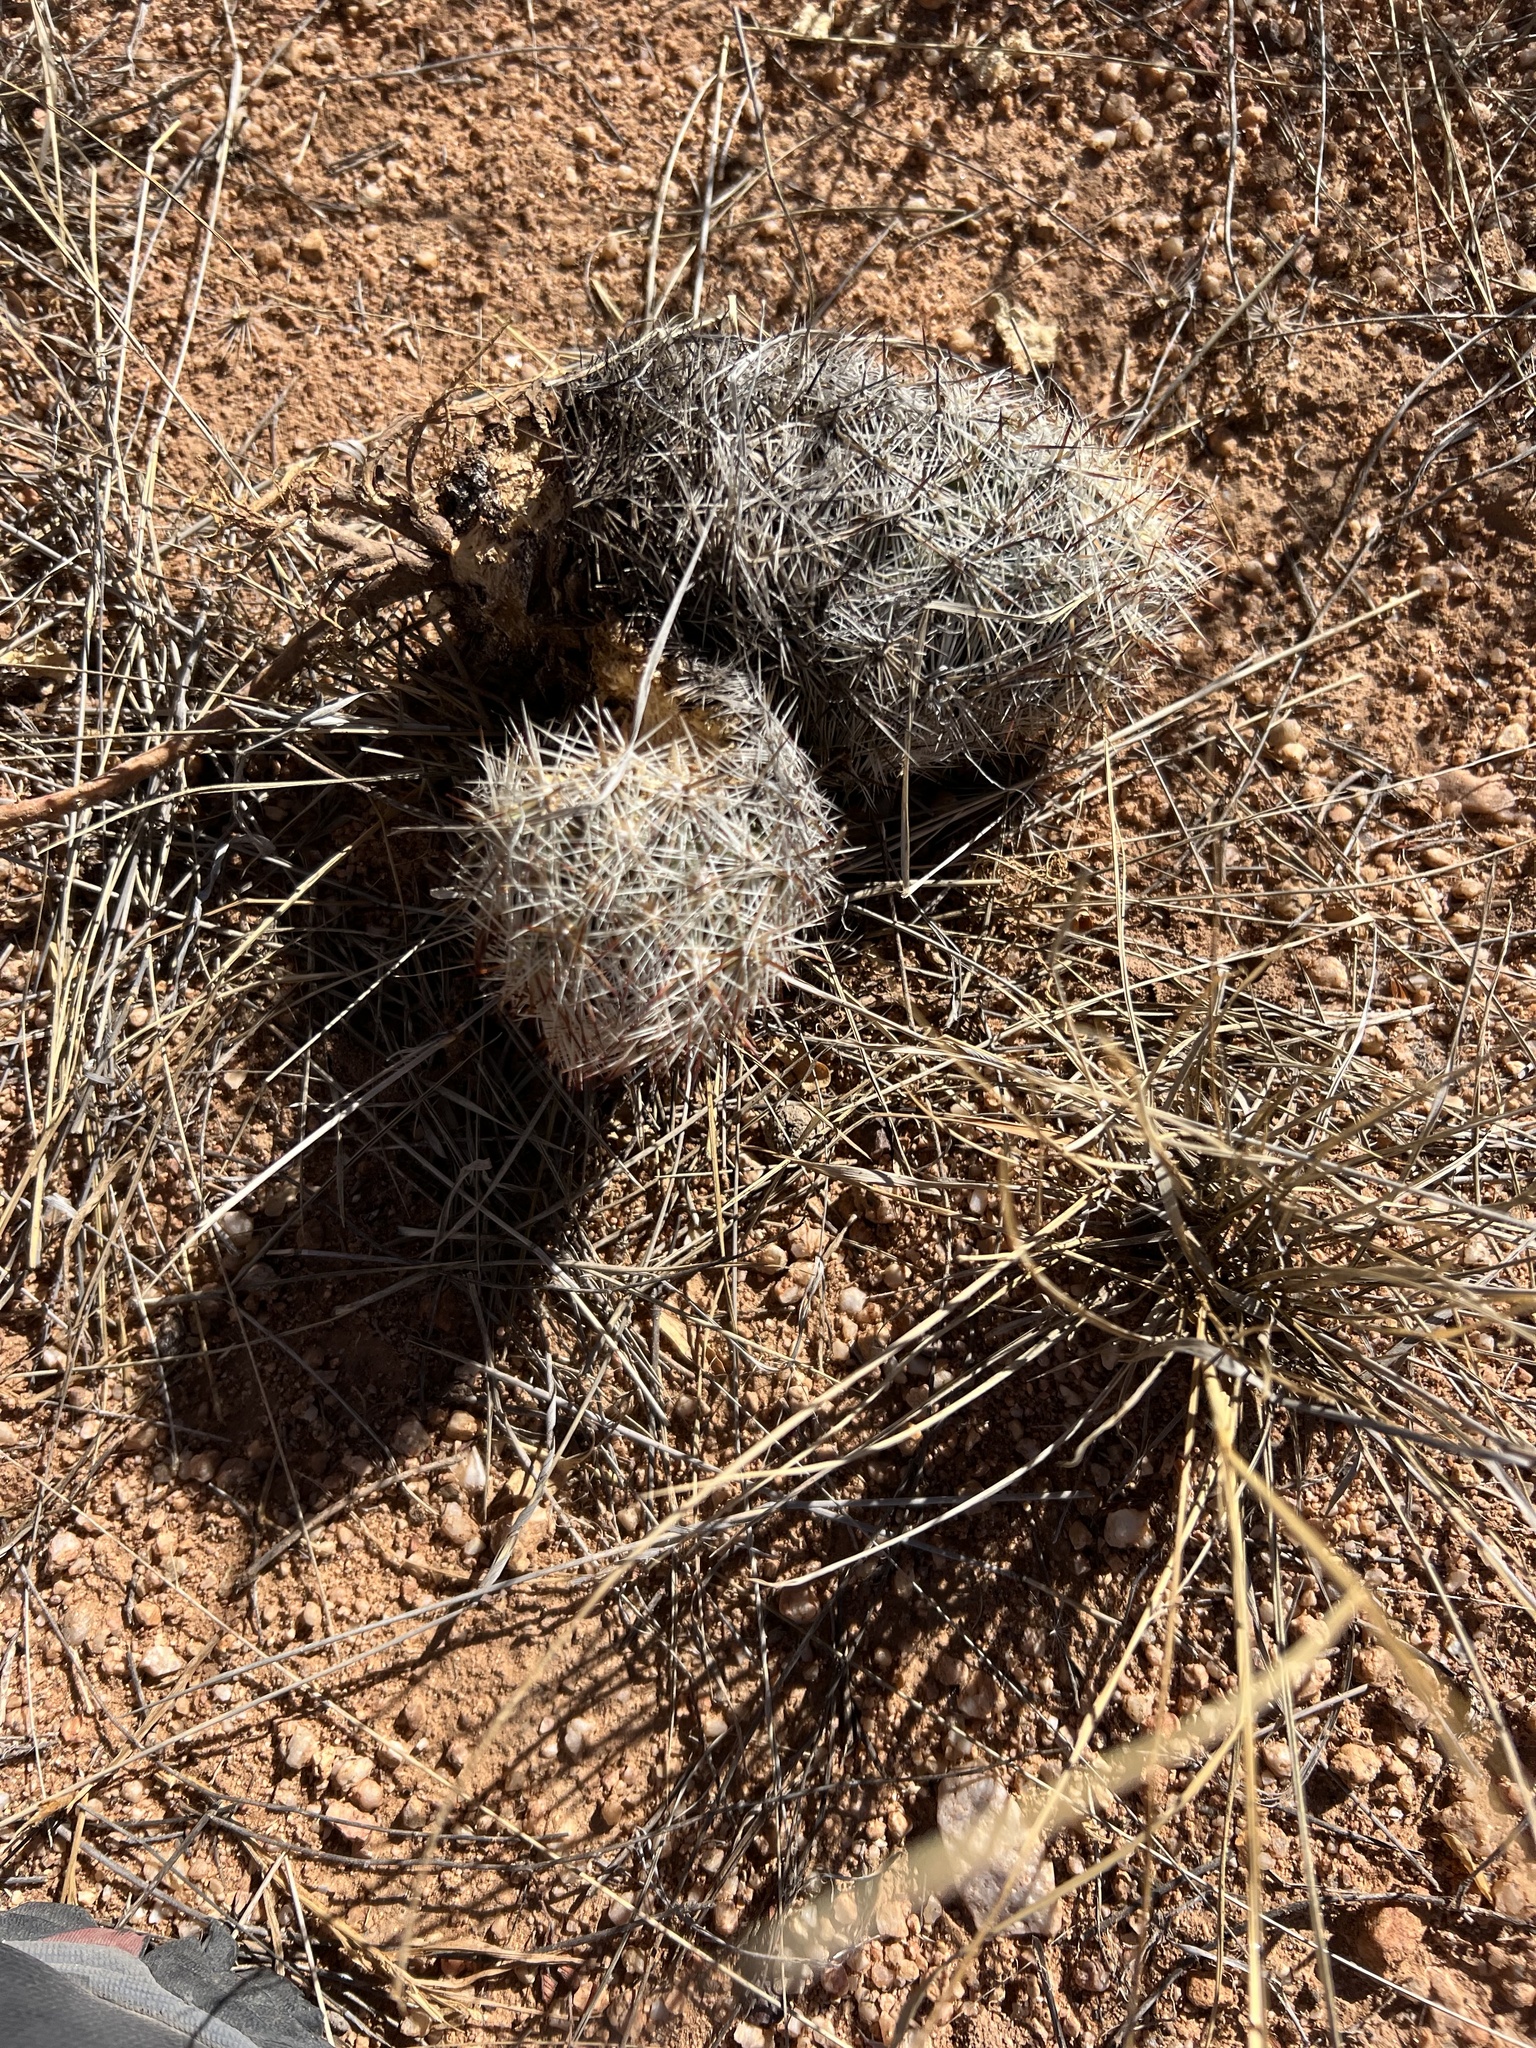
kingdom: Plantae
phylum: Tracheophyta
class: Magnoliopsida
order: Caryophyllales
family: Cactaceae
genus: Pelecyphora
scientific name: Pelecyphora vivipara
